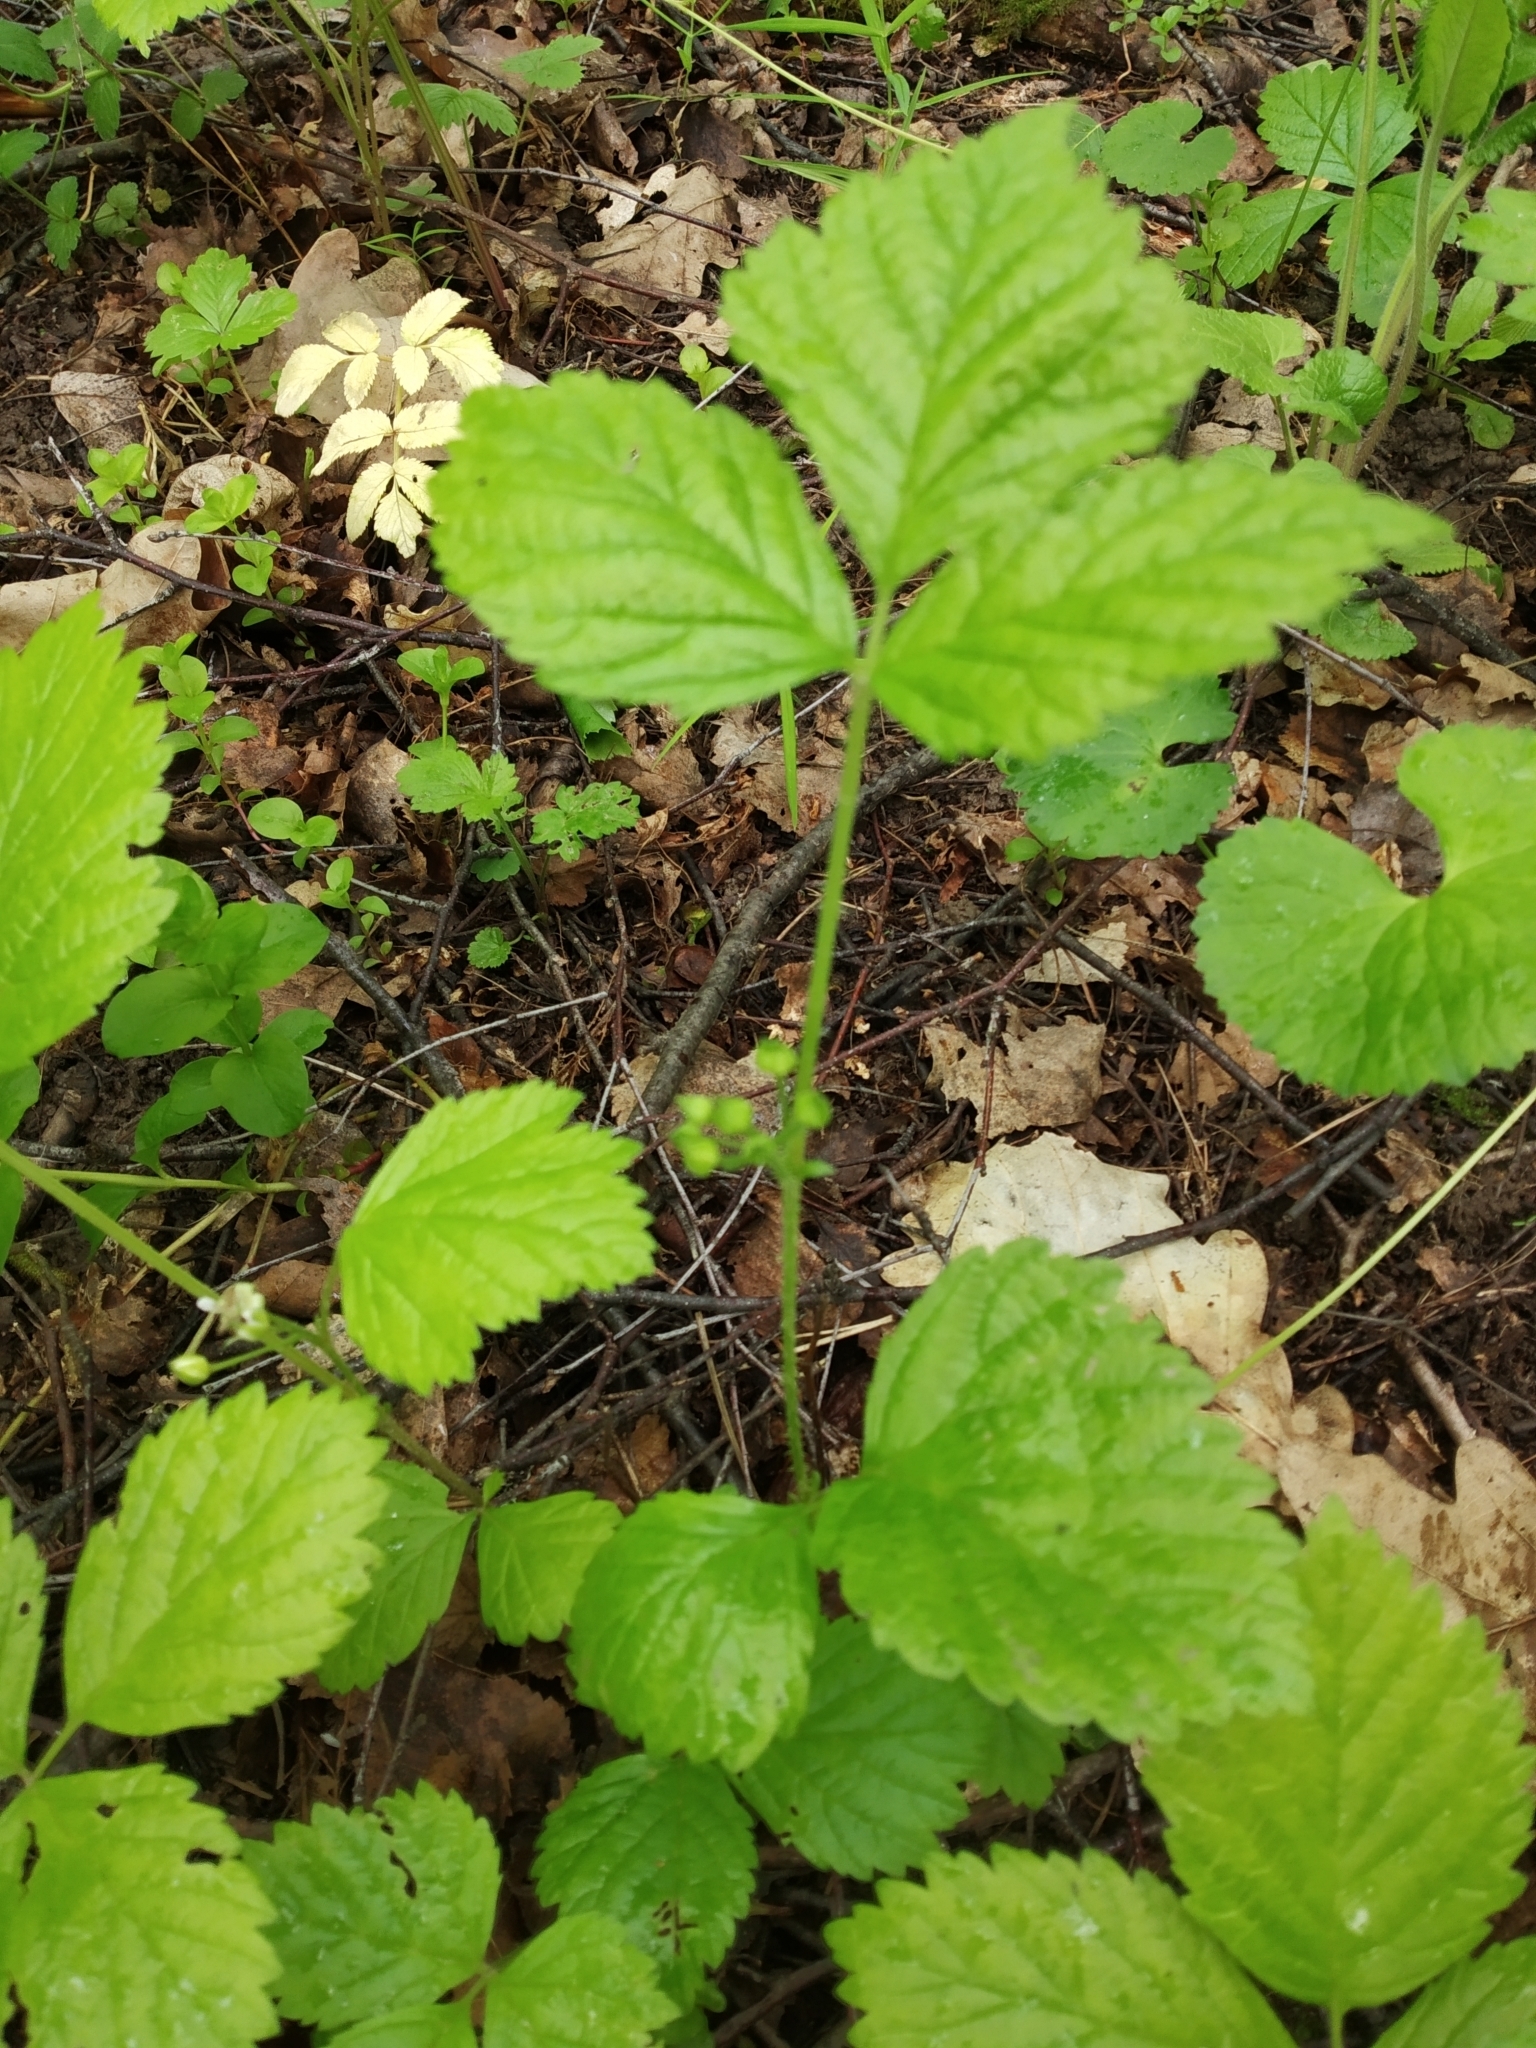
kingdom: Plantae
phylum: Tracheophyta
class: Magnoliopsida
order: Rosales
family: Rosaceae
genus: Rubus
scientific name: Rubus saxatilis
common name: Stone bramble
